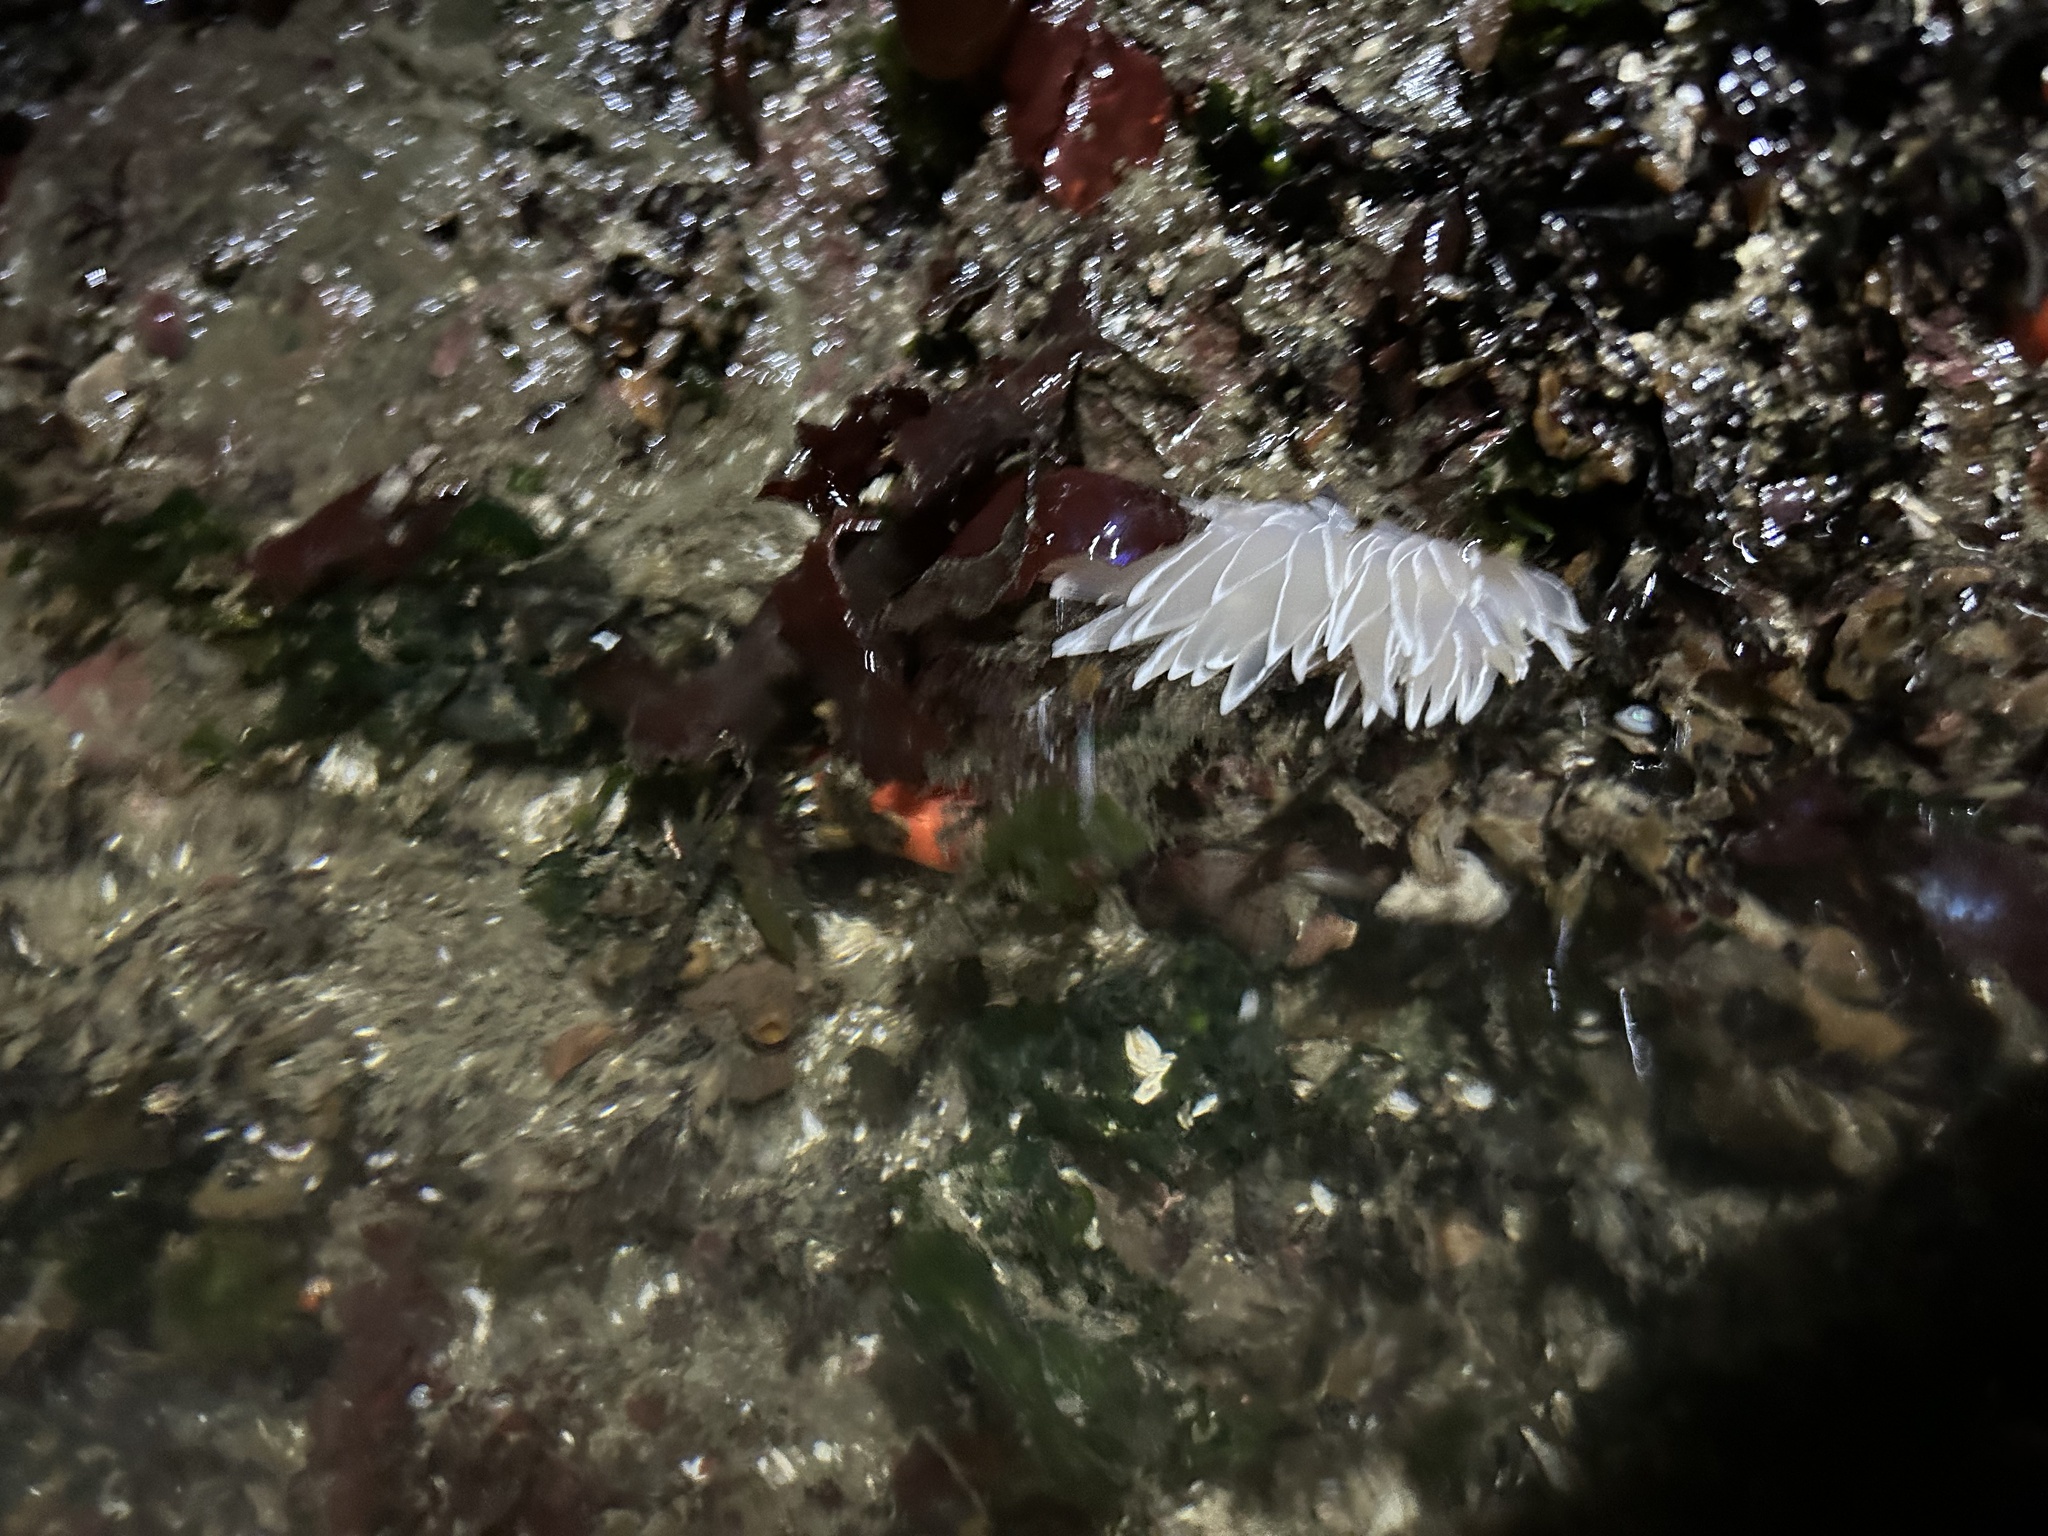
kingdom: Animalia
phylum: Mollusca
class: Gastropoda
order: Nudibranchia
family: Dironidae
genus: Dirona
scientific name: Dirona albolineata
